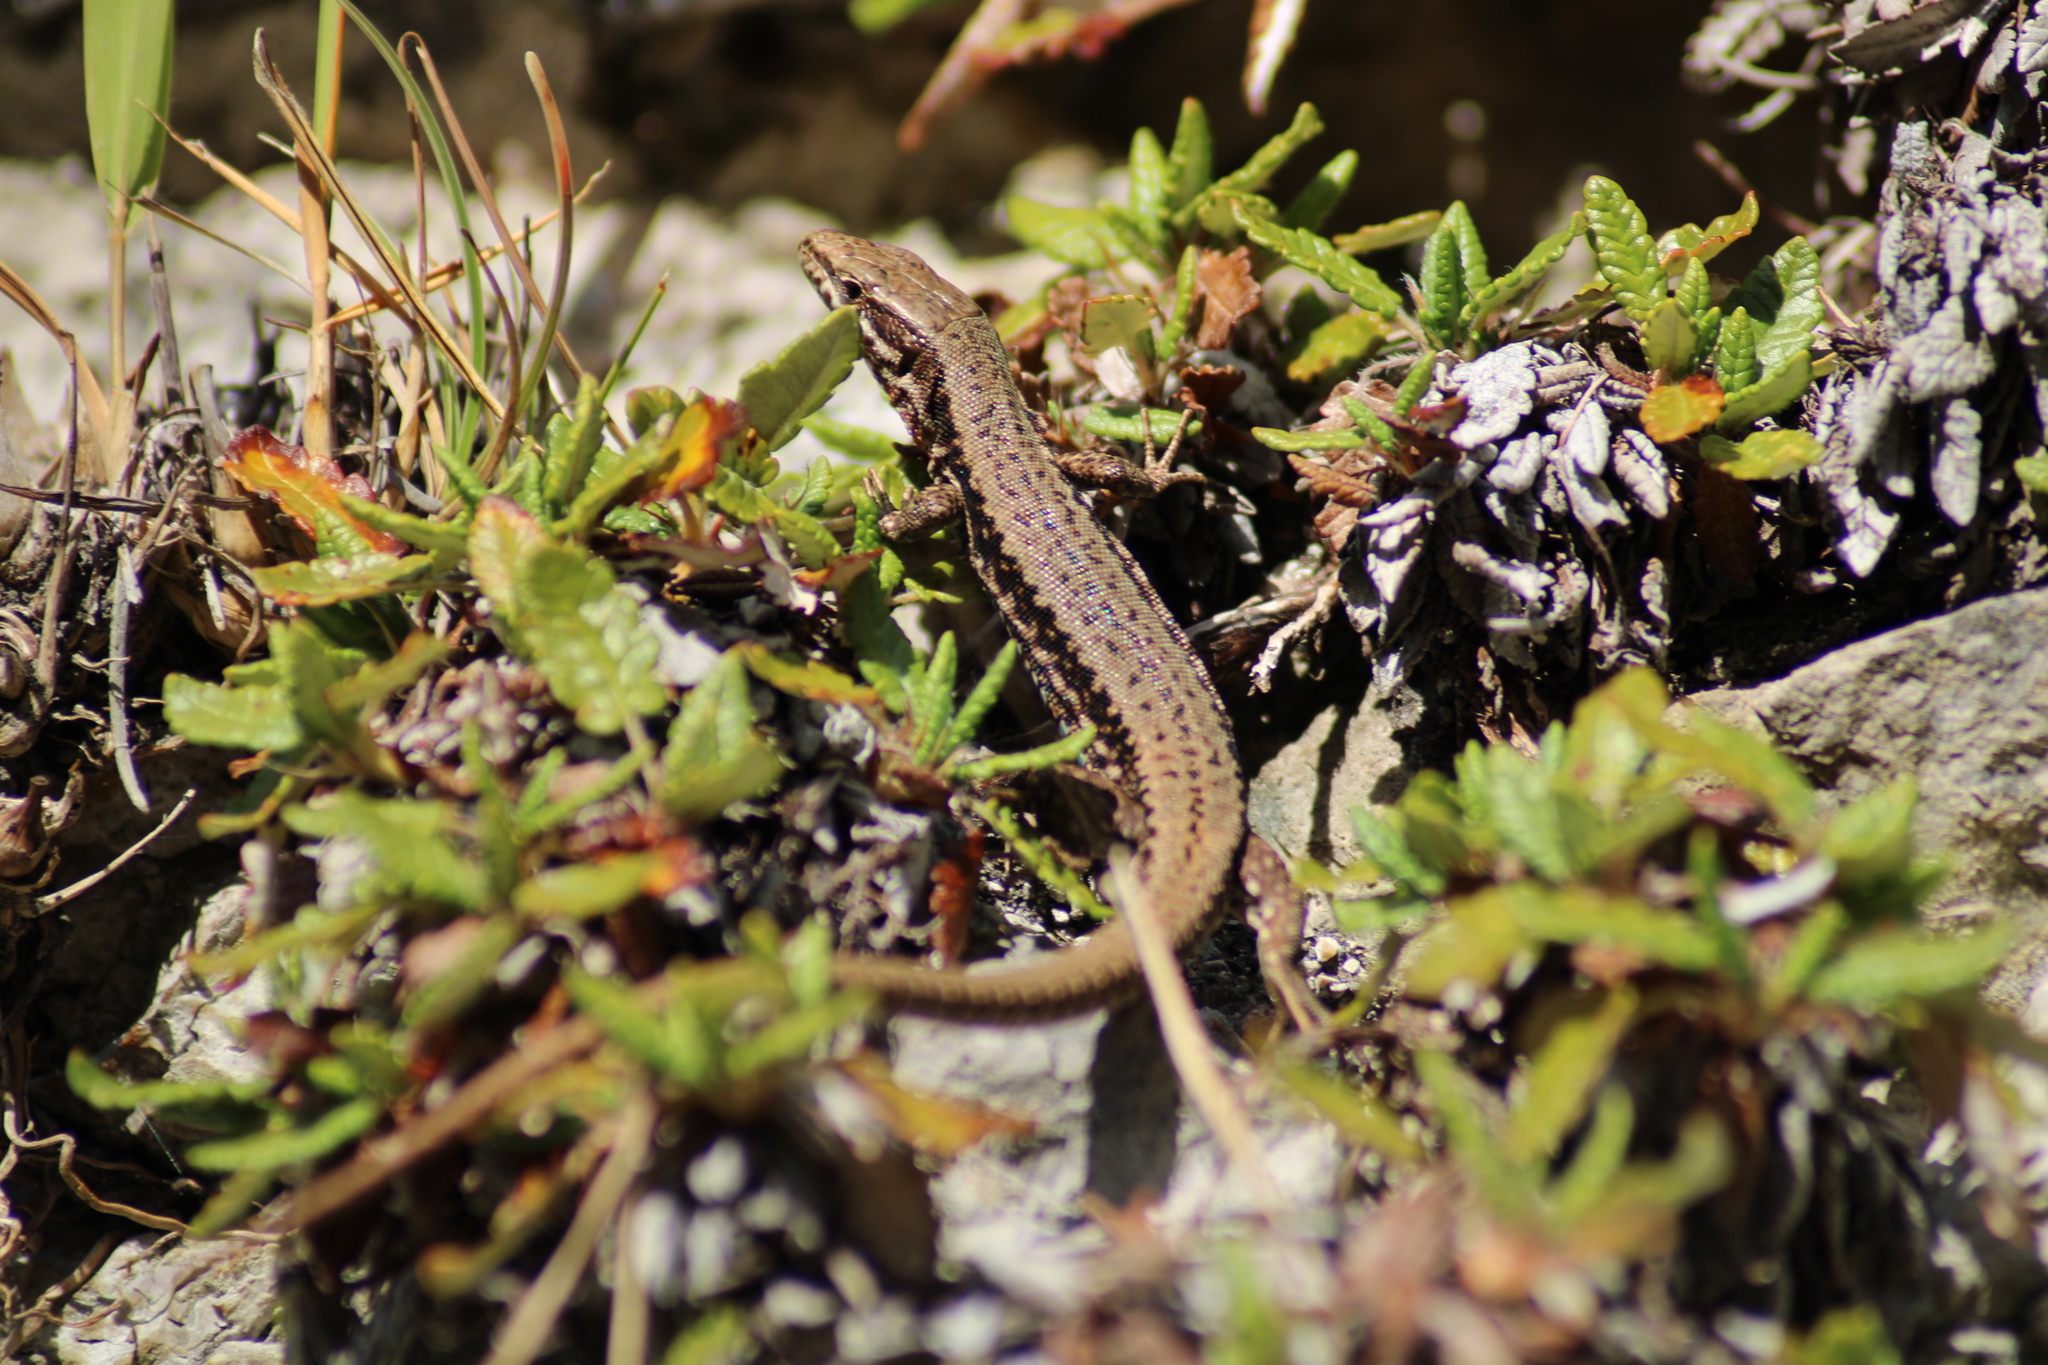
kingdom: Animalia
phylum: Chordata
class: Squamata
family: Lacertidae
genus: Podarcis
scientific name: Podarcis muralis
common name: Common wall lizard
